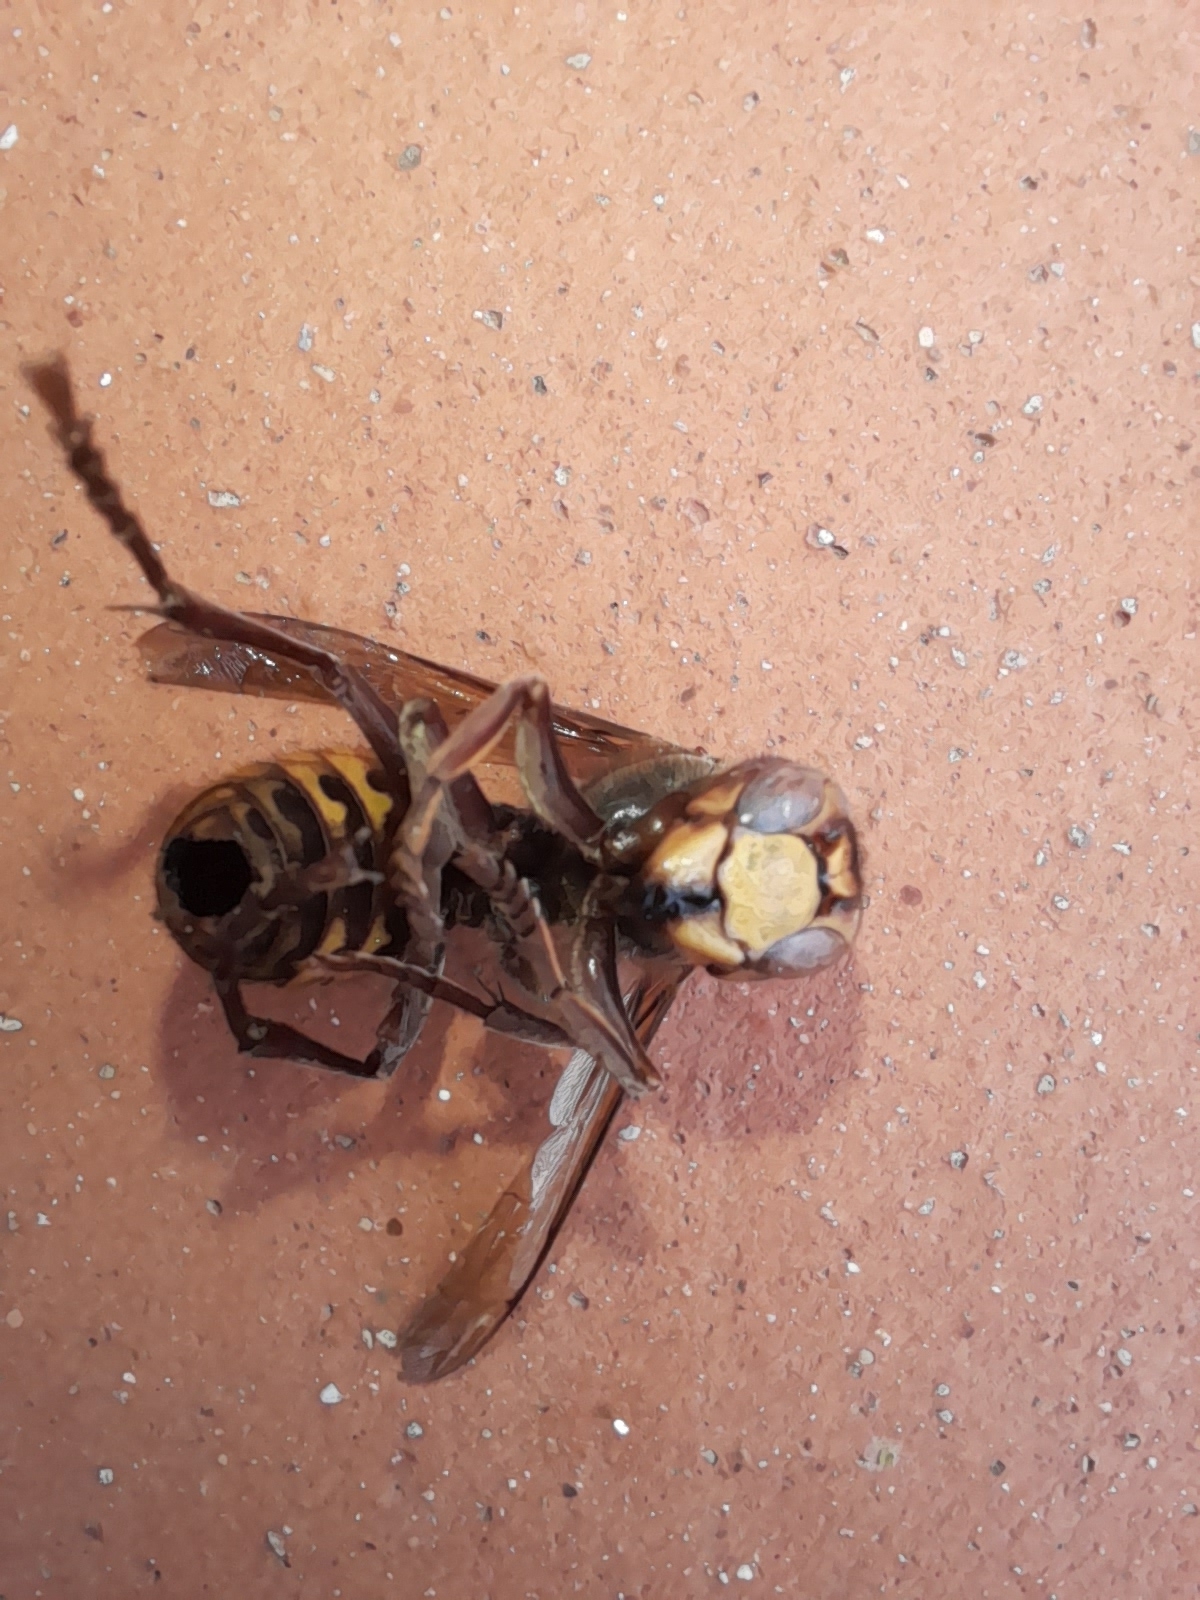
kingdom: Animalia
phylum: Arthropoda
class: Insecta
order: Hymenoptera
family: Vespidae
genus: Vespa
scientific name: Vespa crabro
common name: Hornet
